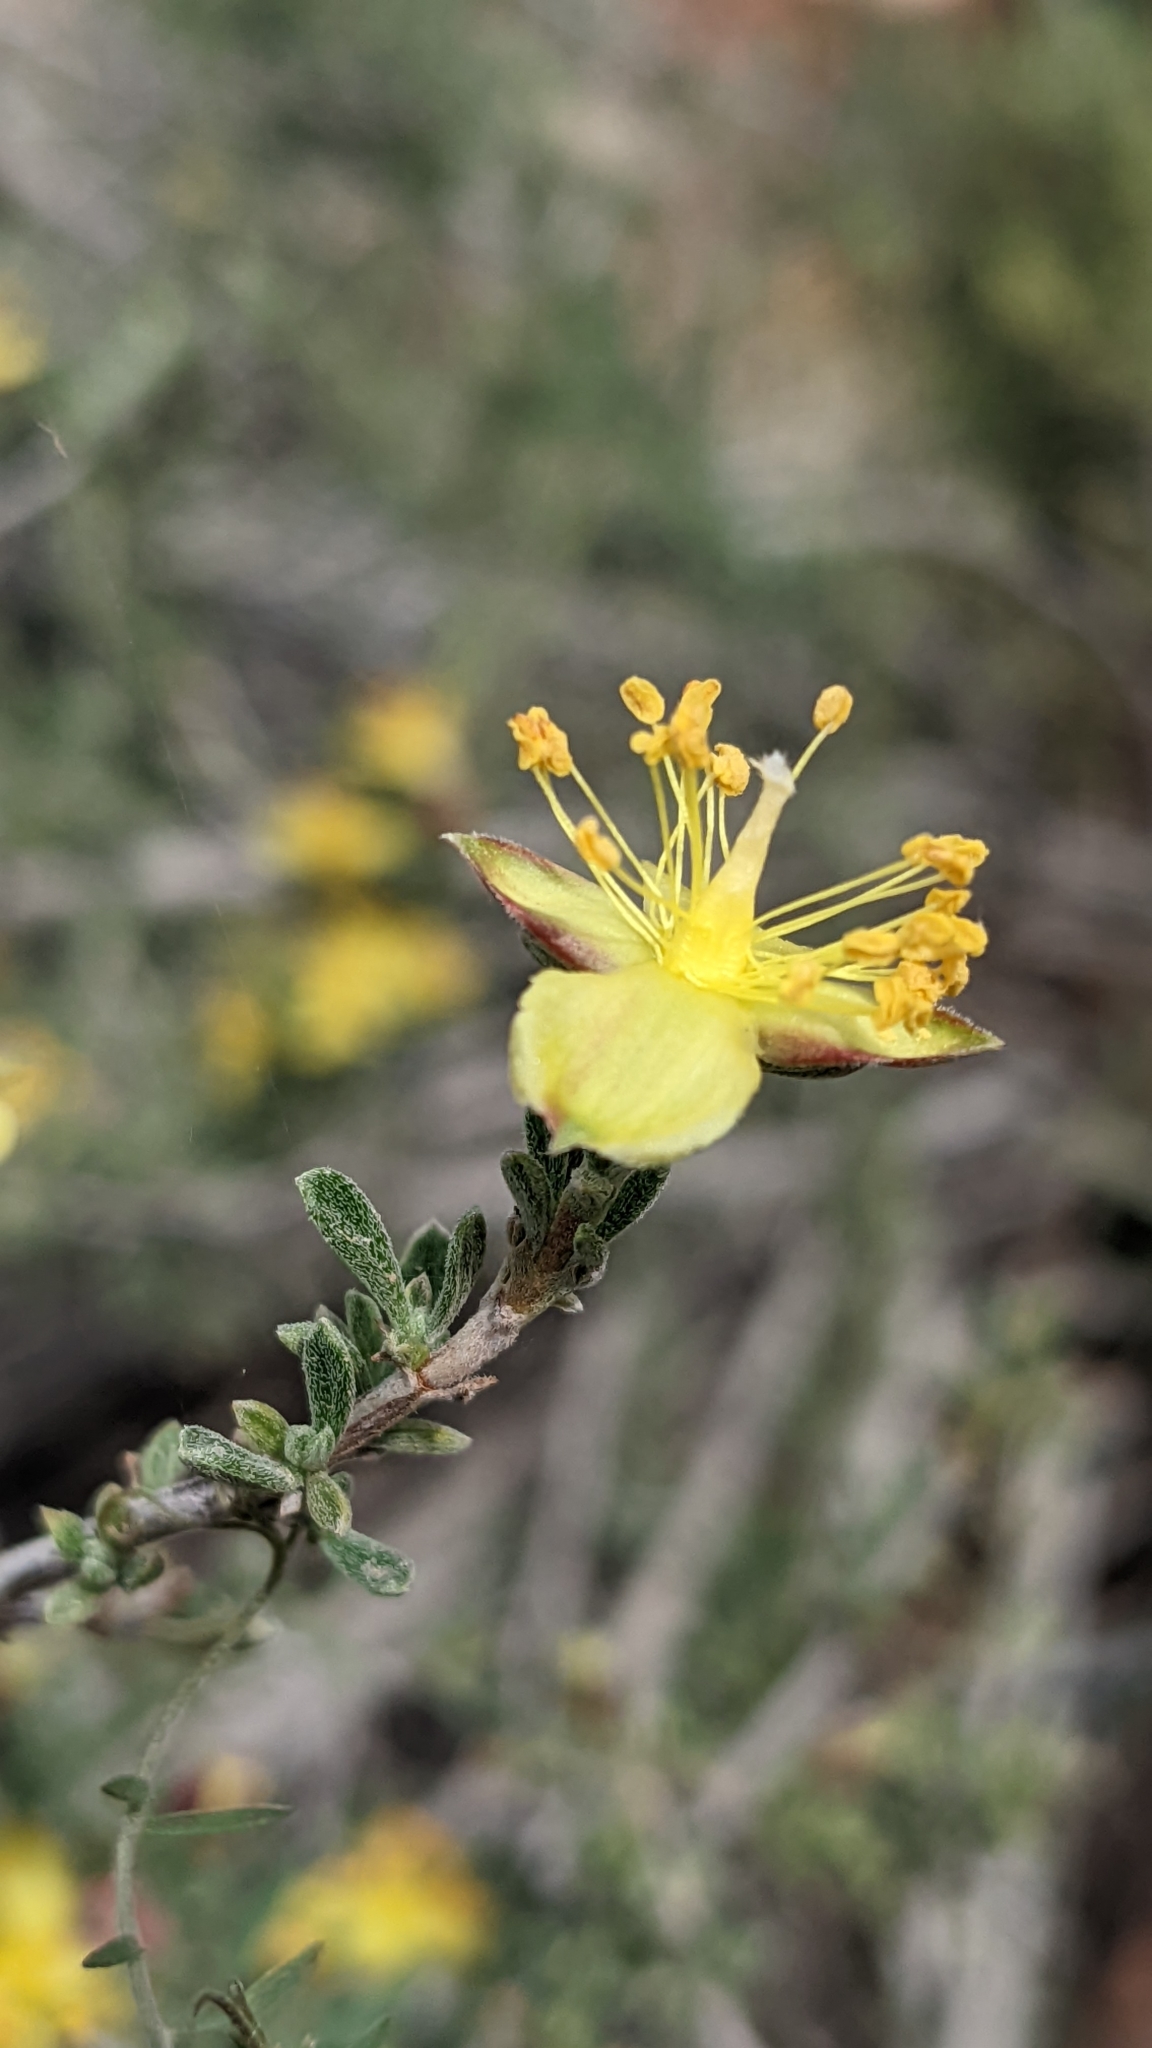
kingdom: Plantae
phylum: Tracheophyta
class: Magnoliopsida
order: Rosales
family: Rosaceae
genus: Coleogyne
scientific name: Coleogyne ramosissima
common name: Blackbrush
